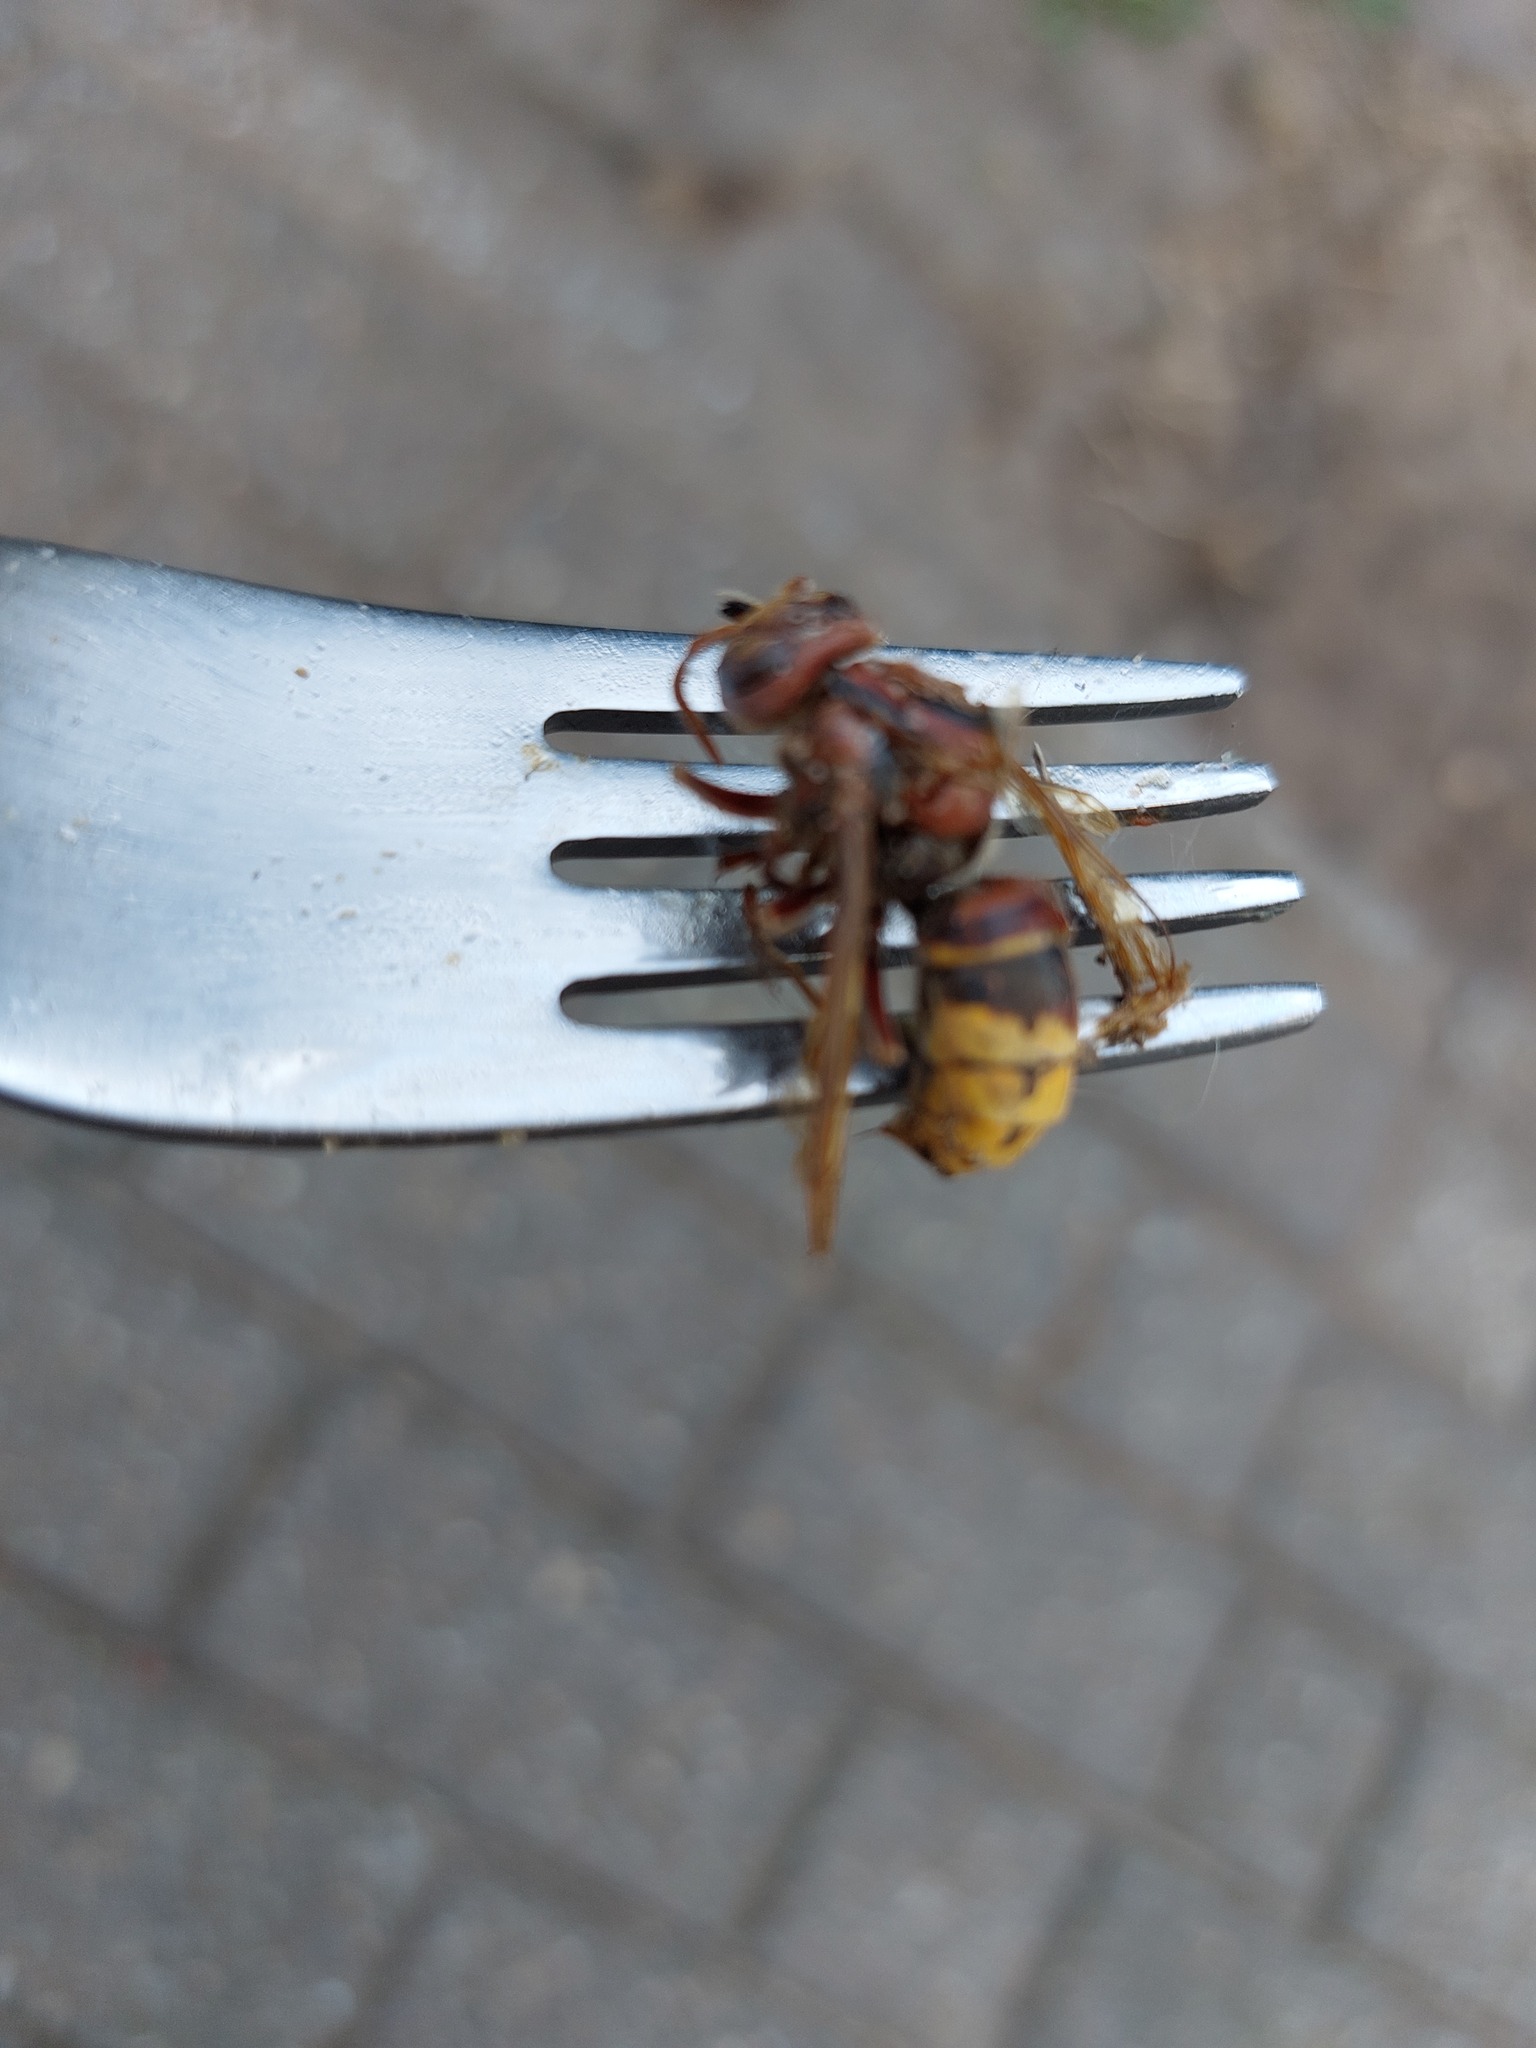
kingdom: Animalia
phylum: Arthropoda
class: Insecta
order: Hymenoptera
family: Vespidae
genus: Vespa
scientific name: Vespa crabro
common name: Hornet
